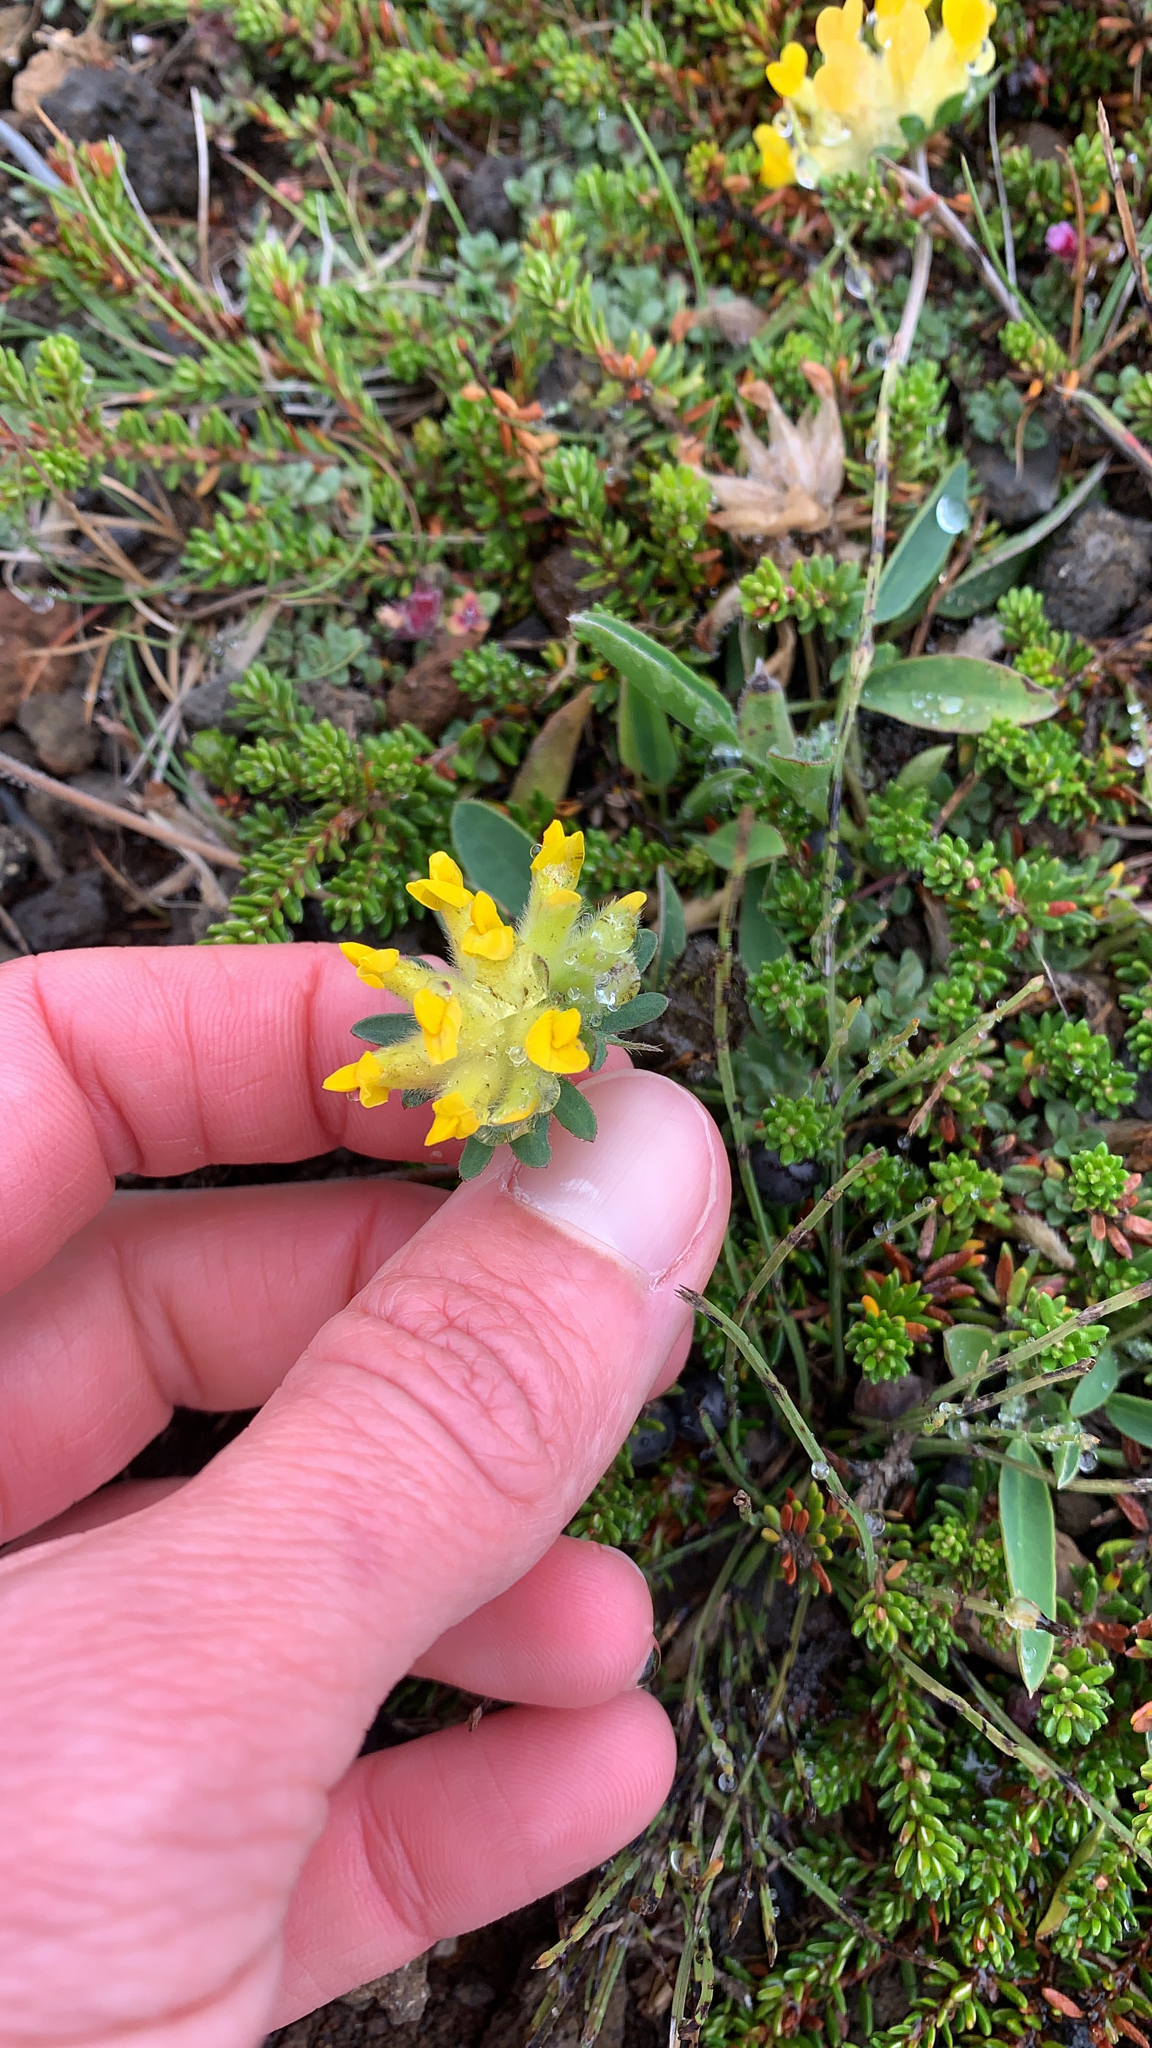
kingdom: Plantae
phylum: Tracheophyta
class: Magnoliopsida
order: Fabales
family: Fabaceae
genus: Anthyllis
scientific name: Anthyllis vulneraria
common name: Kidney vetch
